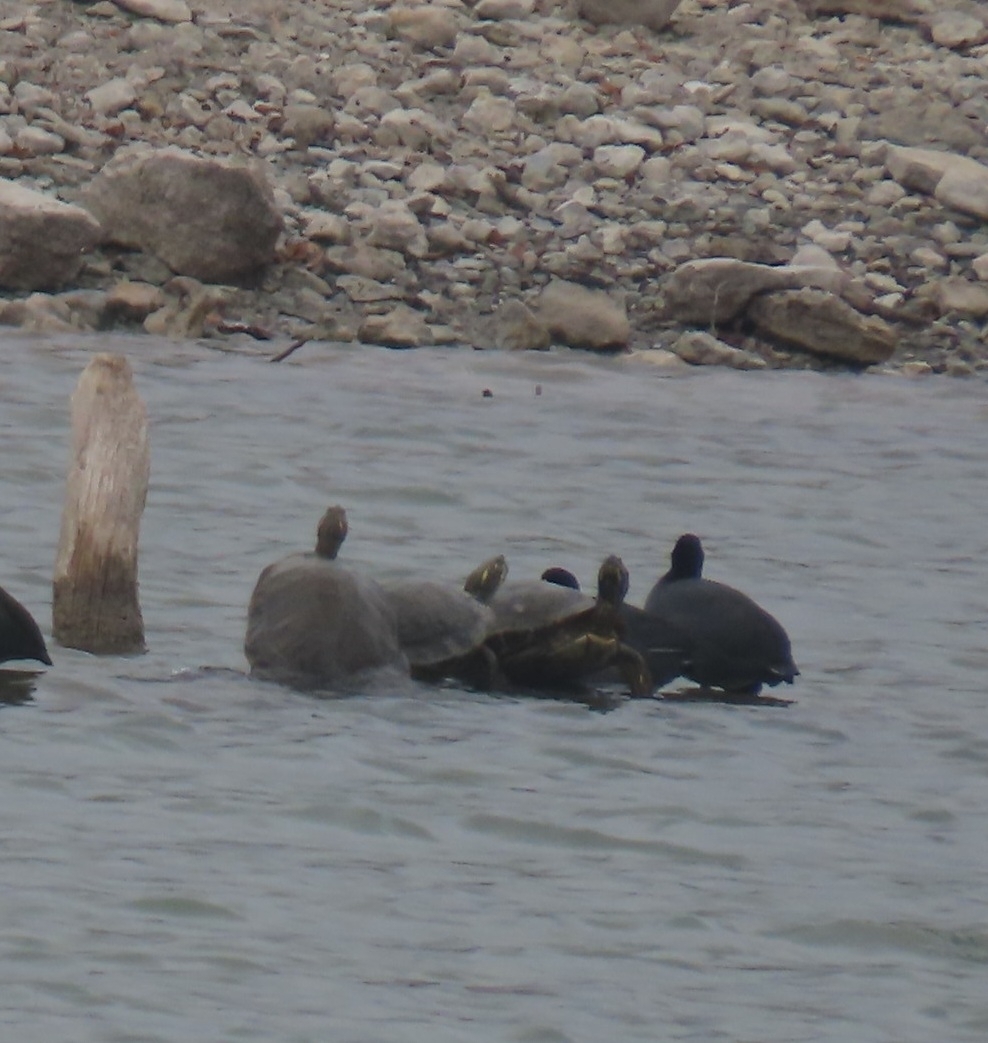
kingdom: Animalia
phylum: Chordata
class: Testudines
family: Emydidae
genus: Pseudemys
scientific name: Pseudemys texana
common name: Texas river cooter
